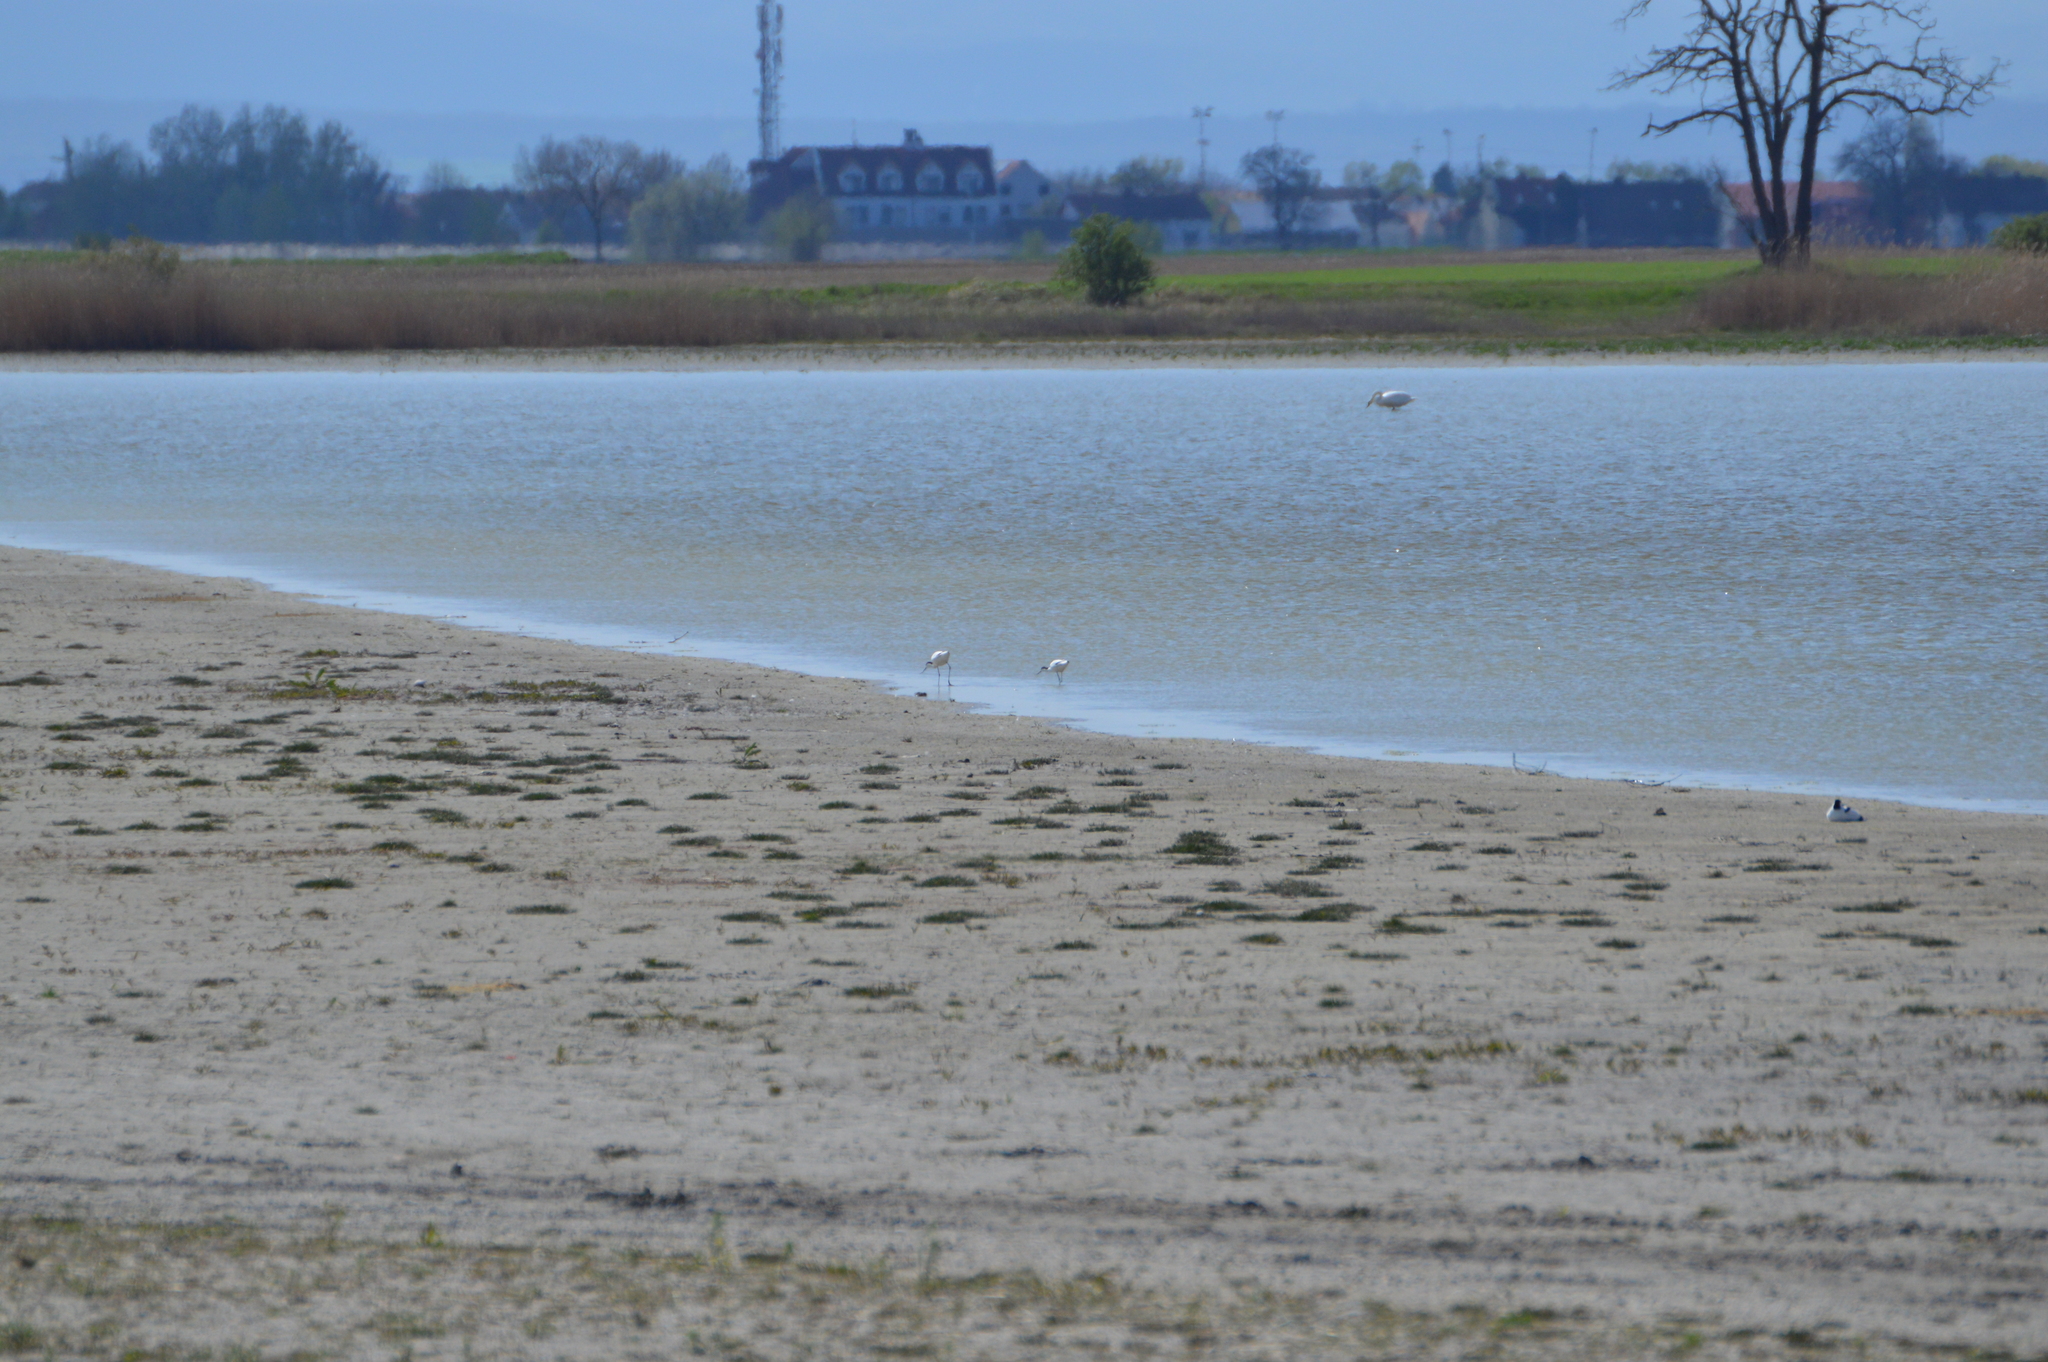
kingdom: Animalia
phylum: Chordata
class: Aves
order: Charadriiformes
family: Recurvirostridae
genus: Recurvirostra
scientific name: Recurvirostra avosetta
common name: Pied avocet
